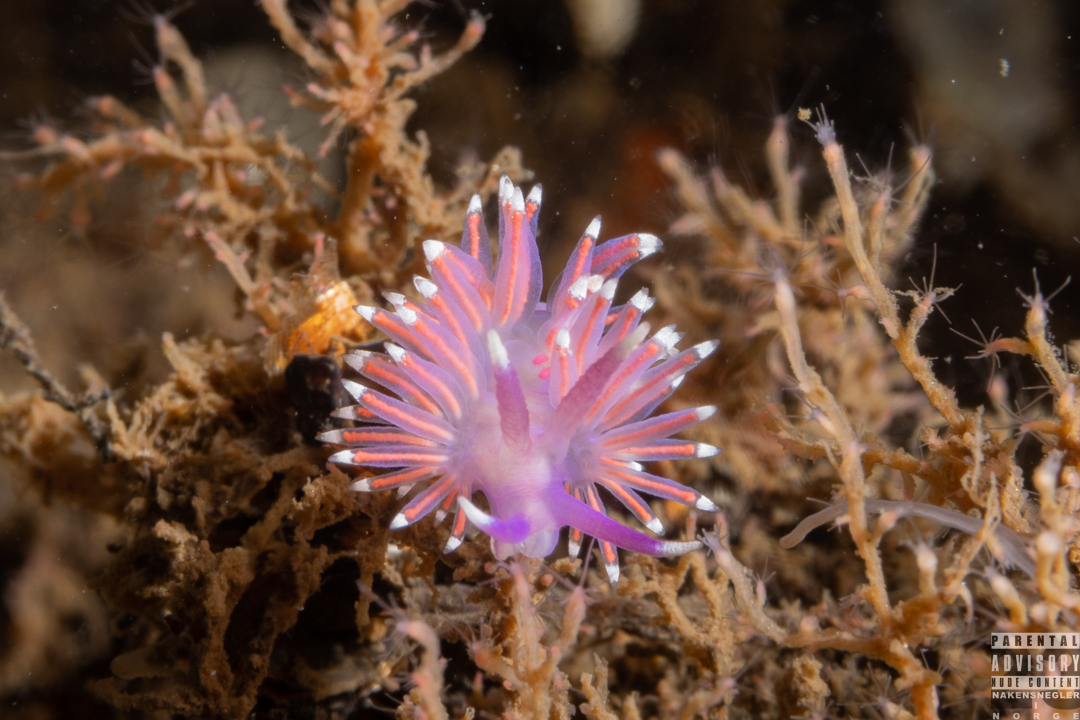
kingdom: Animalia
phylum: Mollusca
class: Gastropoda
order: Nudibranchia
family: Flabellinidae
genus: Edmundsella
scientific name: Edmundsella pedata
